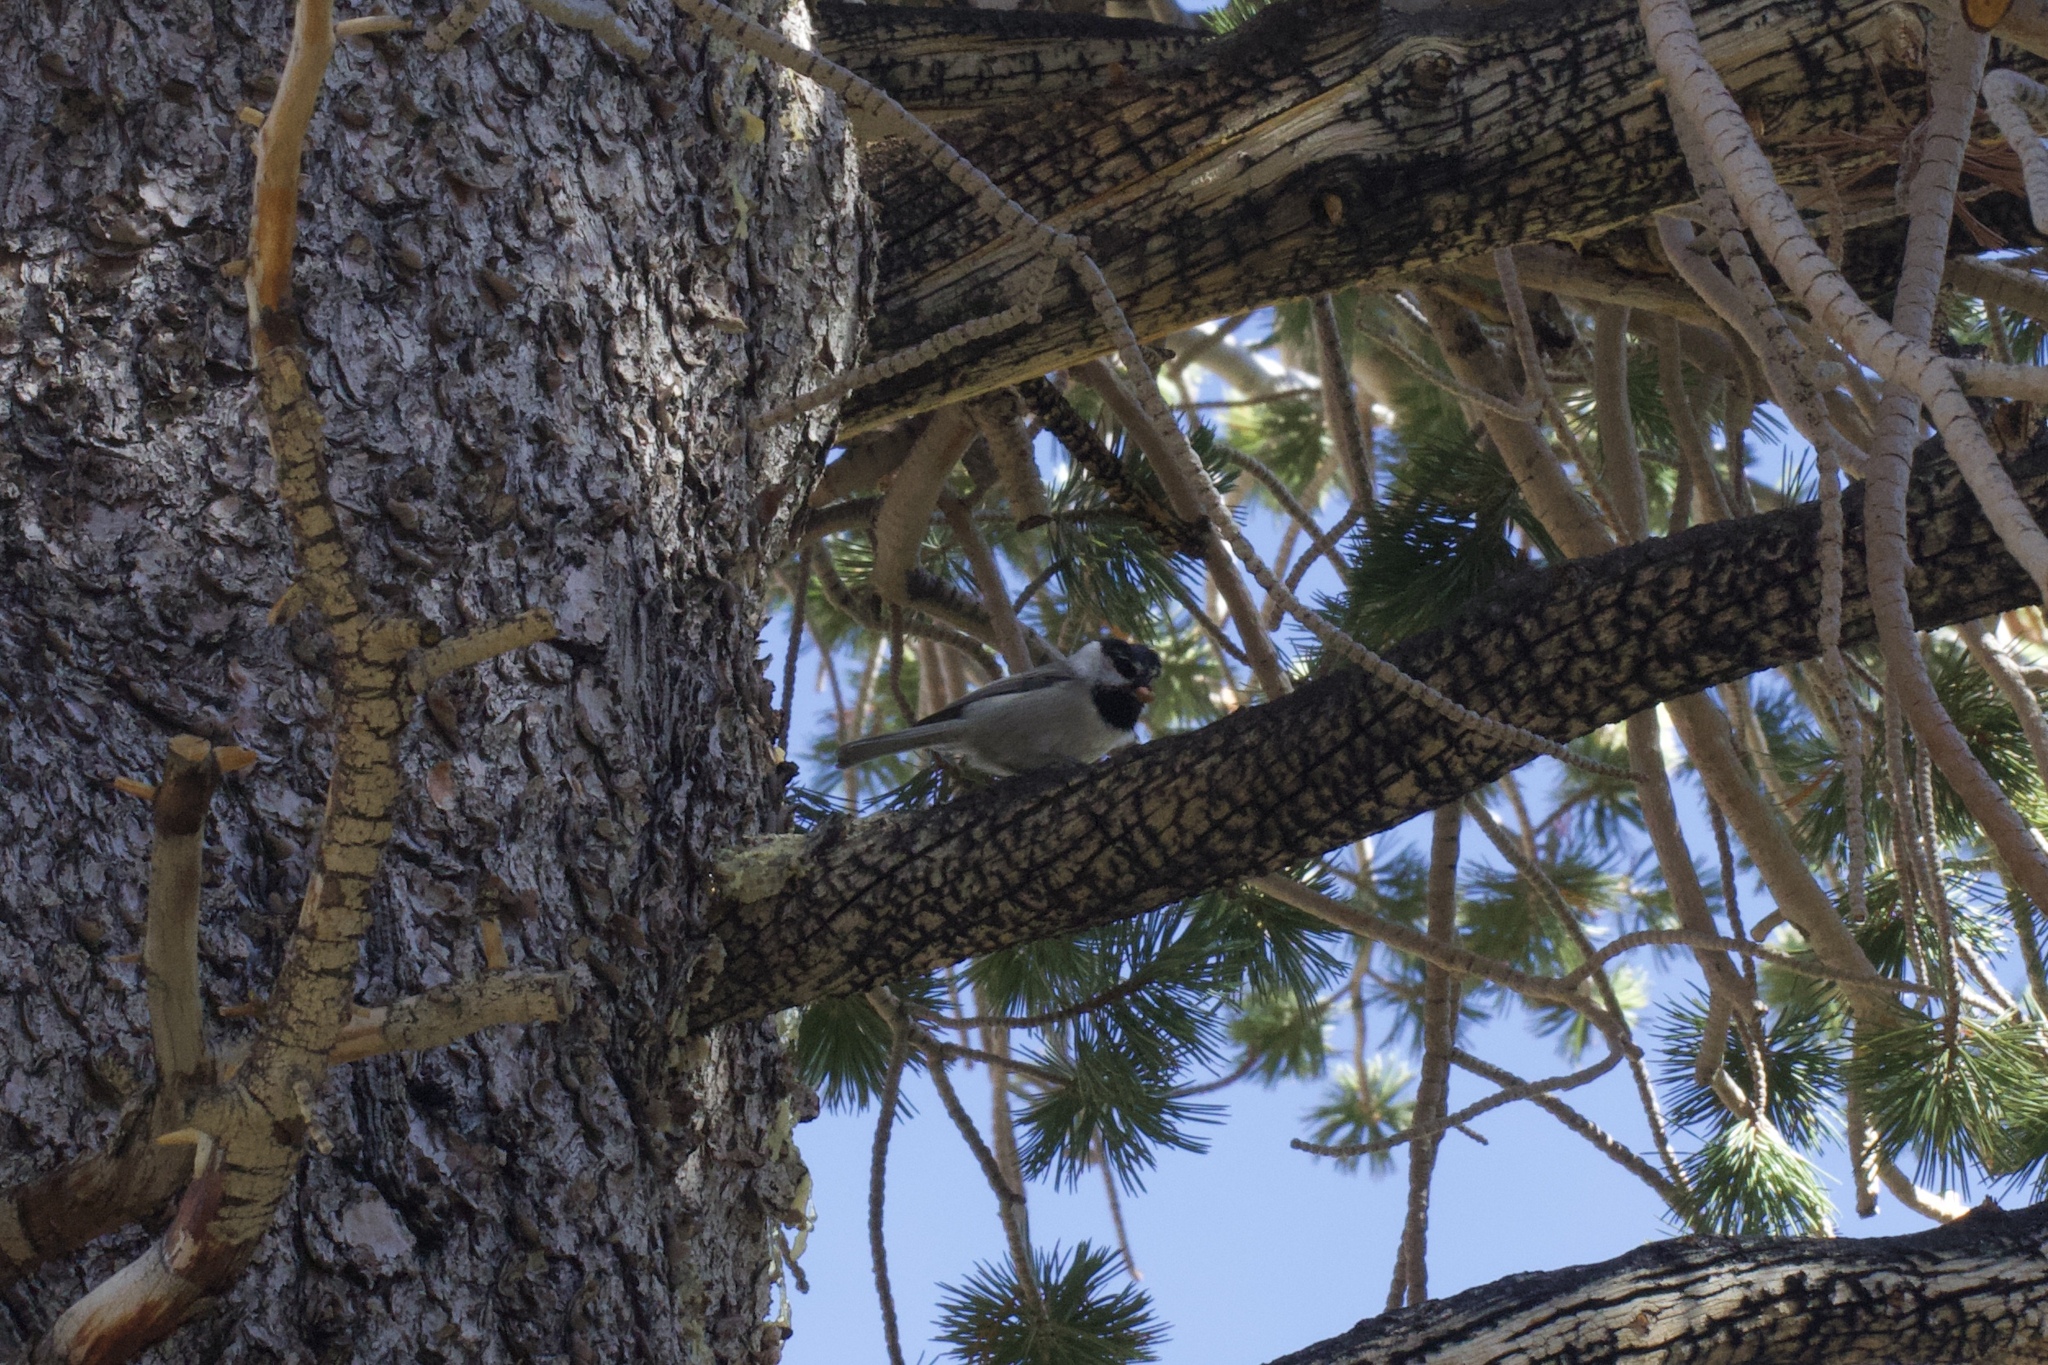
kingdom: Animalia
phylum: Chordata
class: Aves
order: Passeriformes
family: Paridae
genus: Poecile
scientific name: Poecile gambeli
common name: Mountain chickadee
